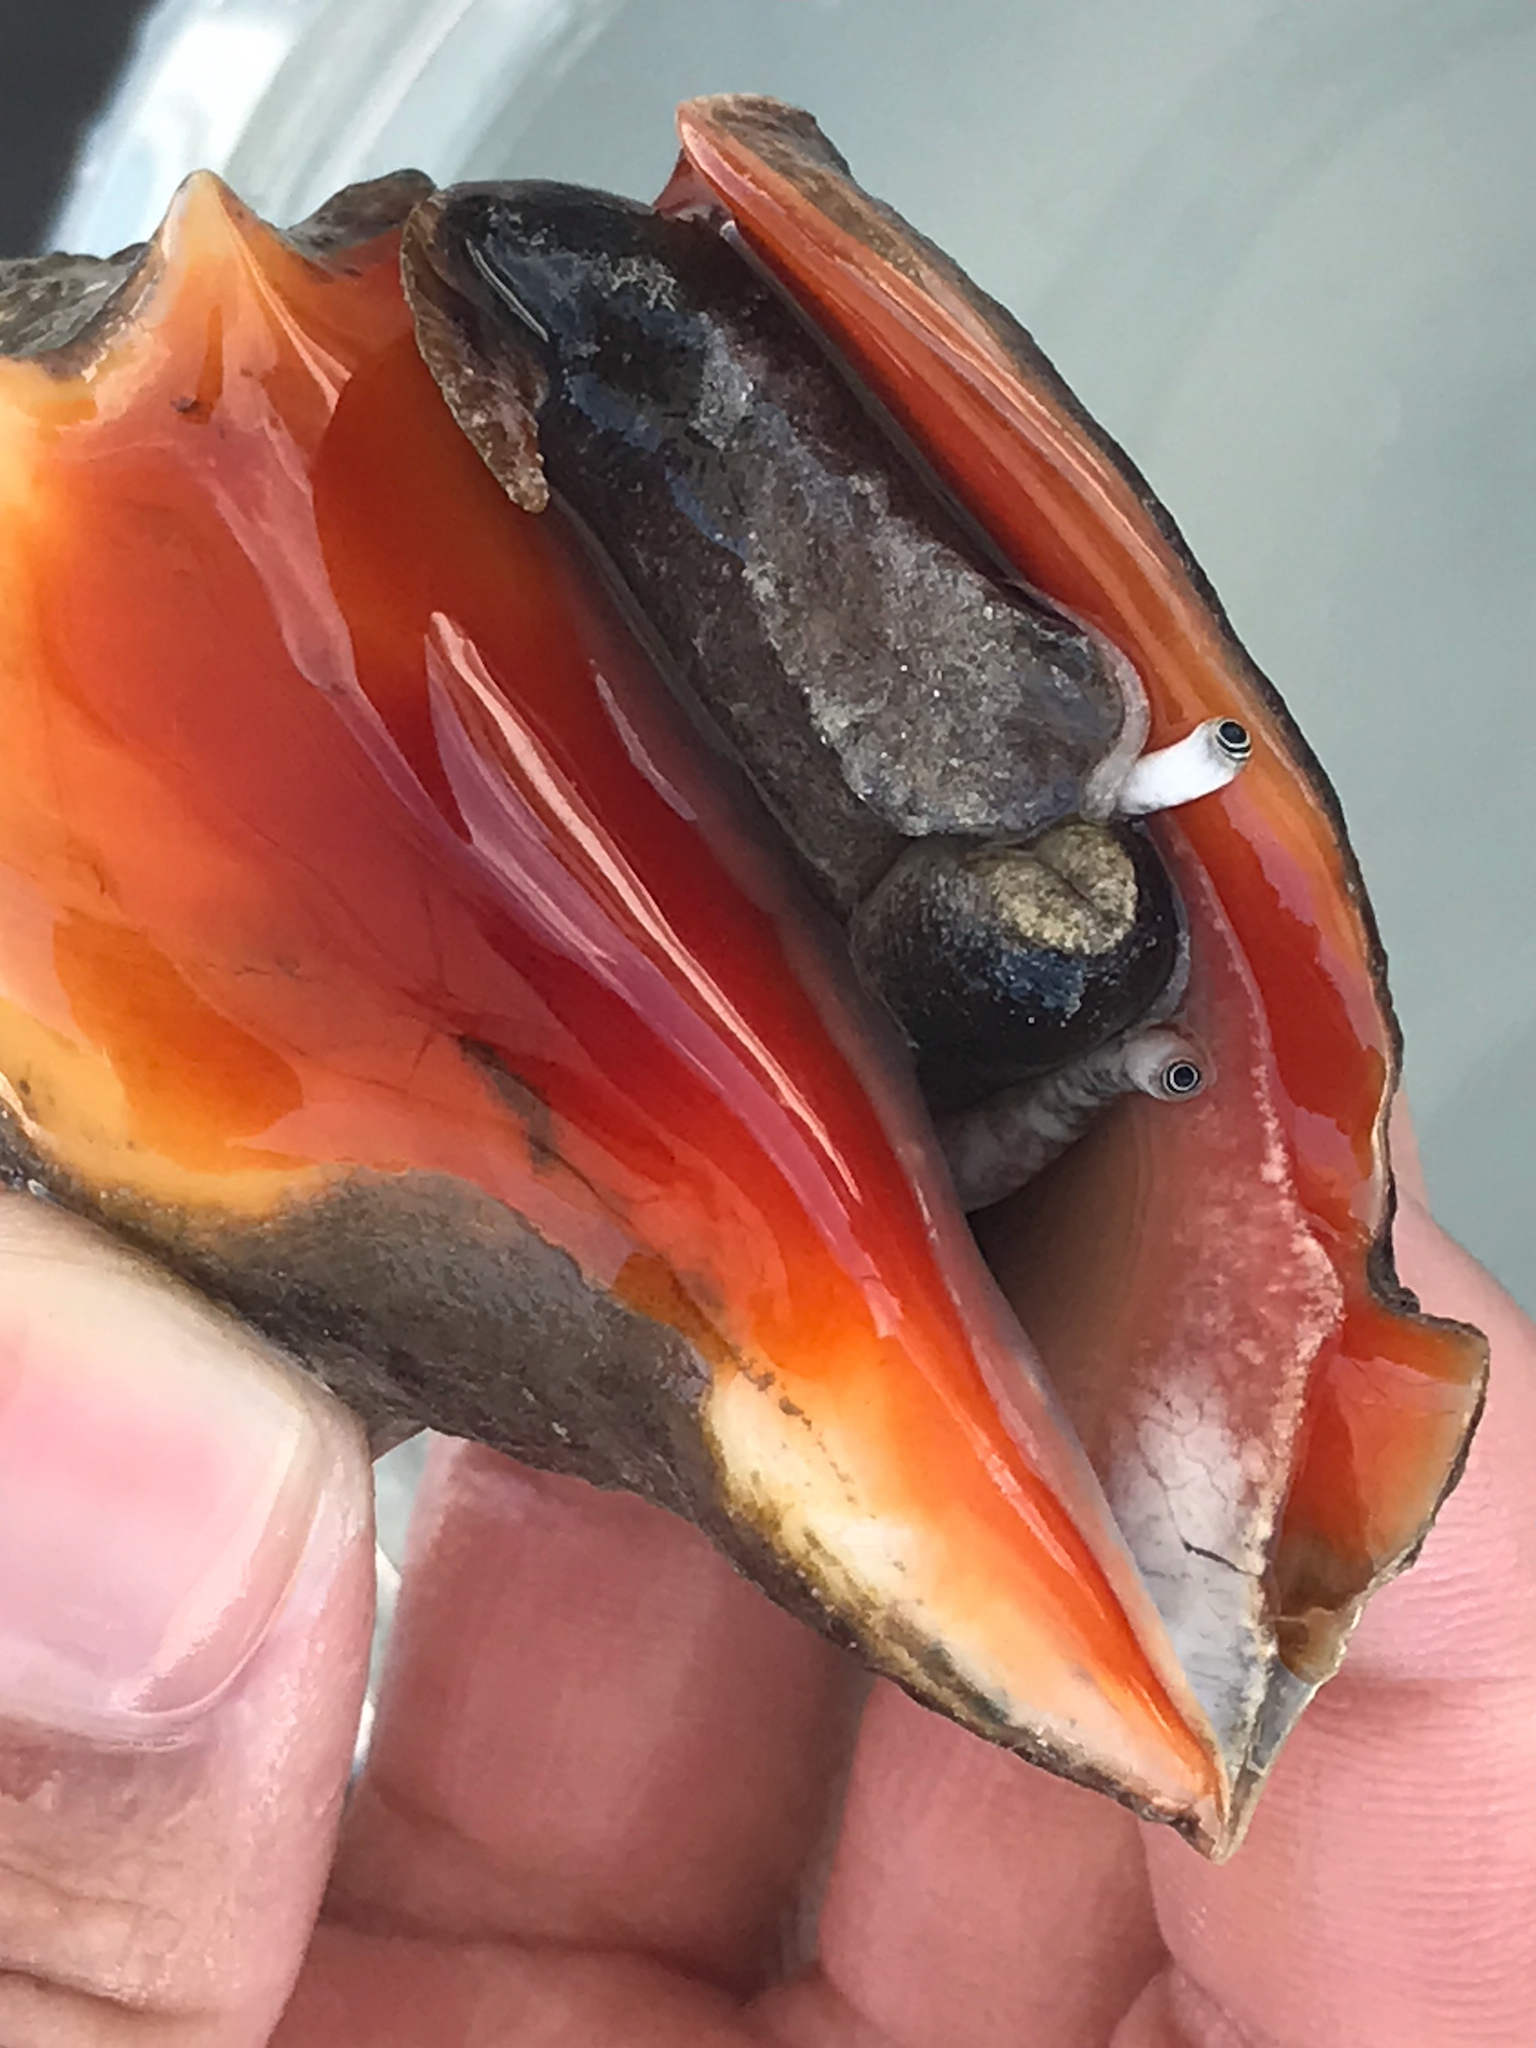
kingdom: Animalia
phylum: Mollusca
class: Gastropoda
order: Littorinimorpha
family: Strombidae
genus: Strombus
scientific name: Strombus alatus
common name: Florida fighting conch
